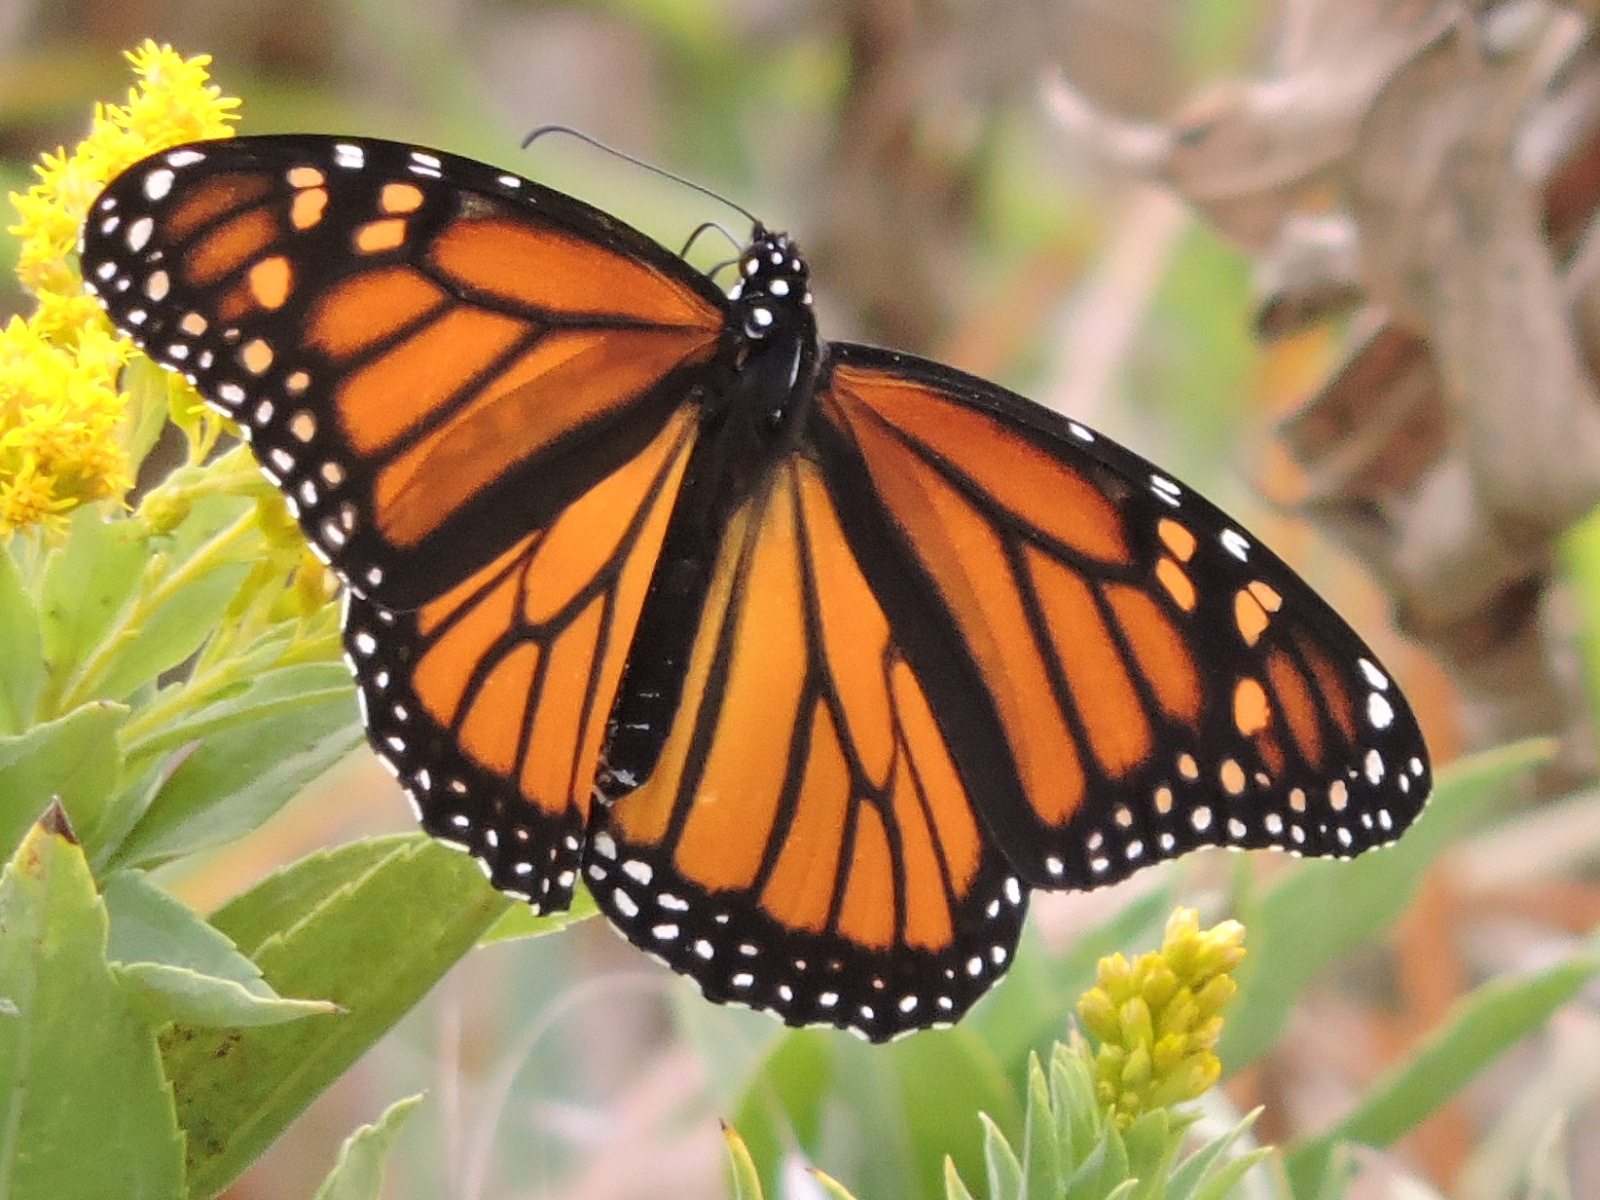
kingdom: Animalia
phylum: Arthropoda
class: Insecta
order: Lepidoptera
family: Nymphalidae
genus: Danaus
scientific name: Danaus plexippus
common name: Monarch
